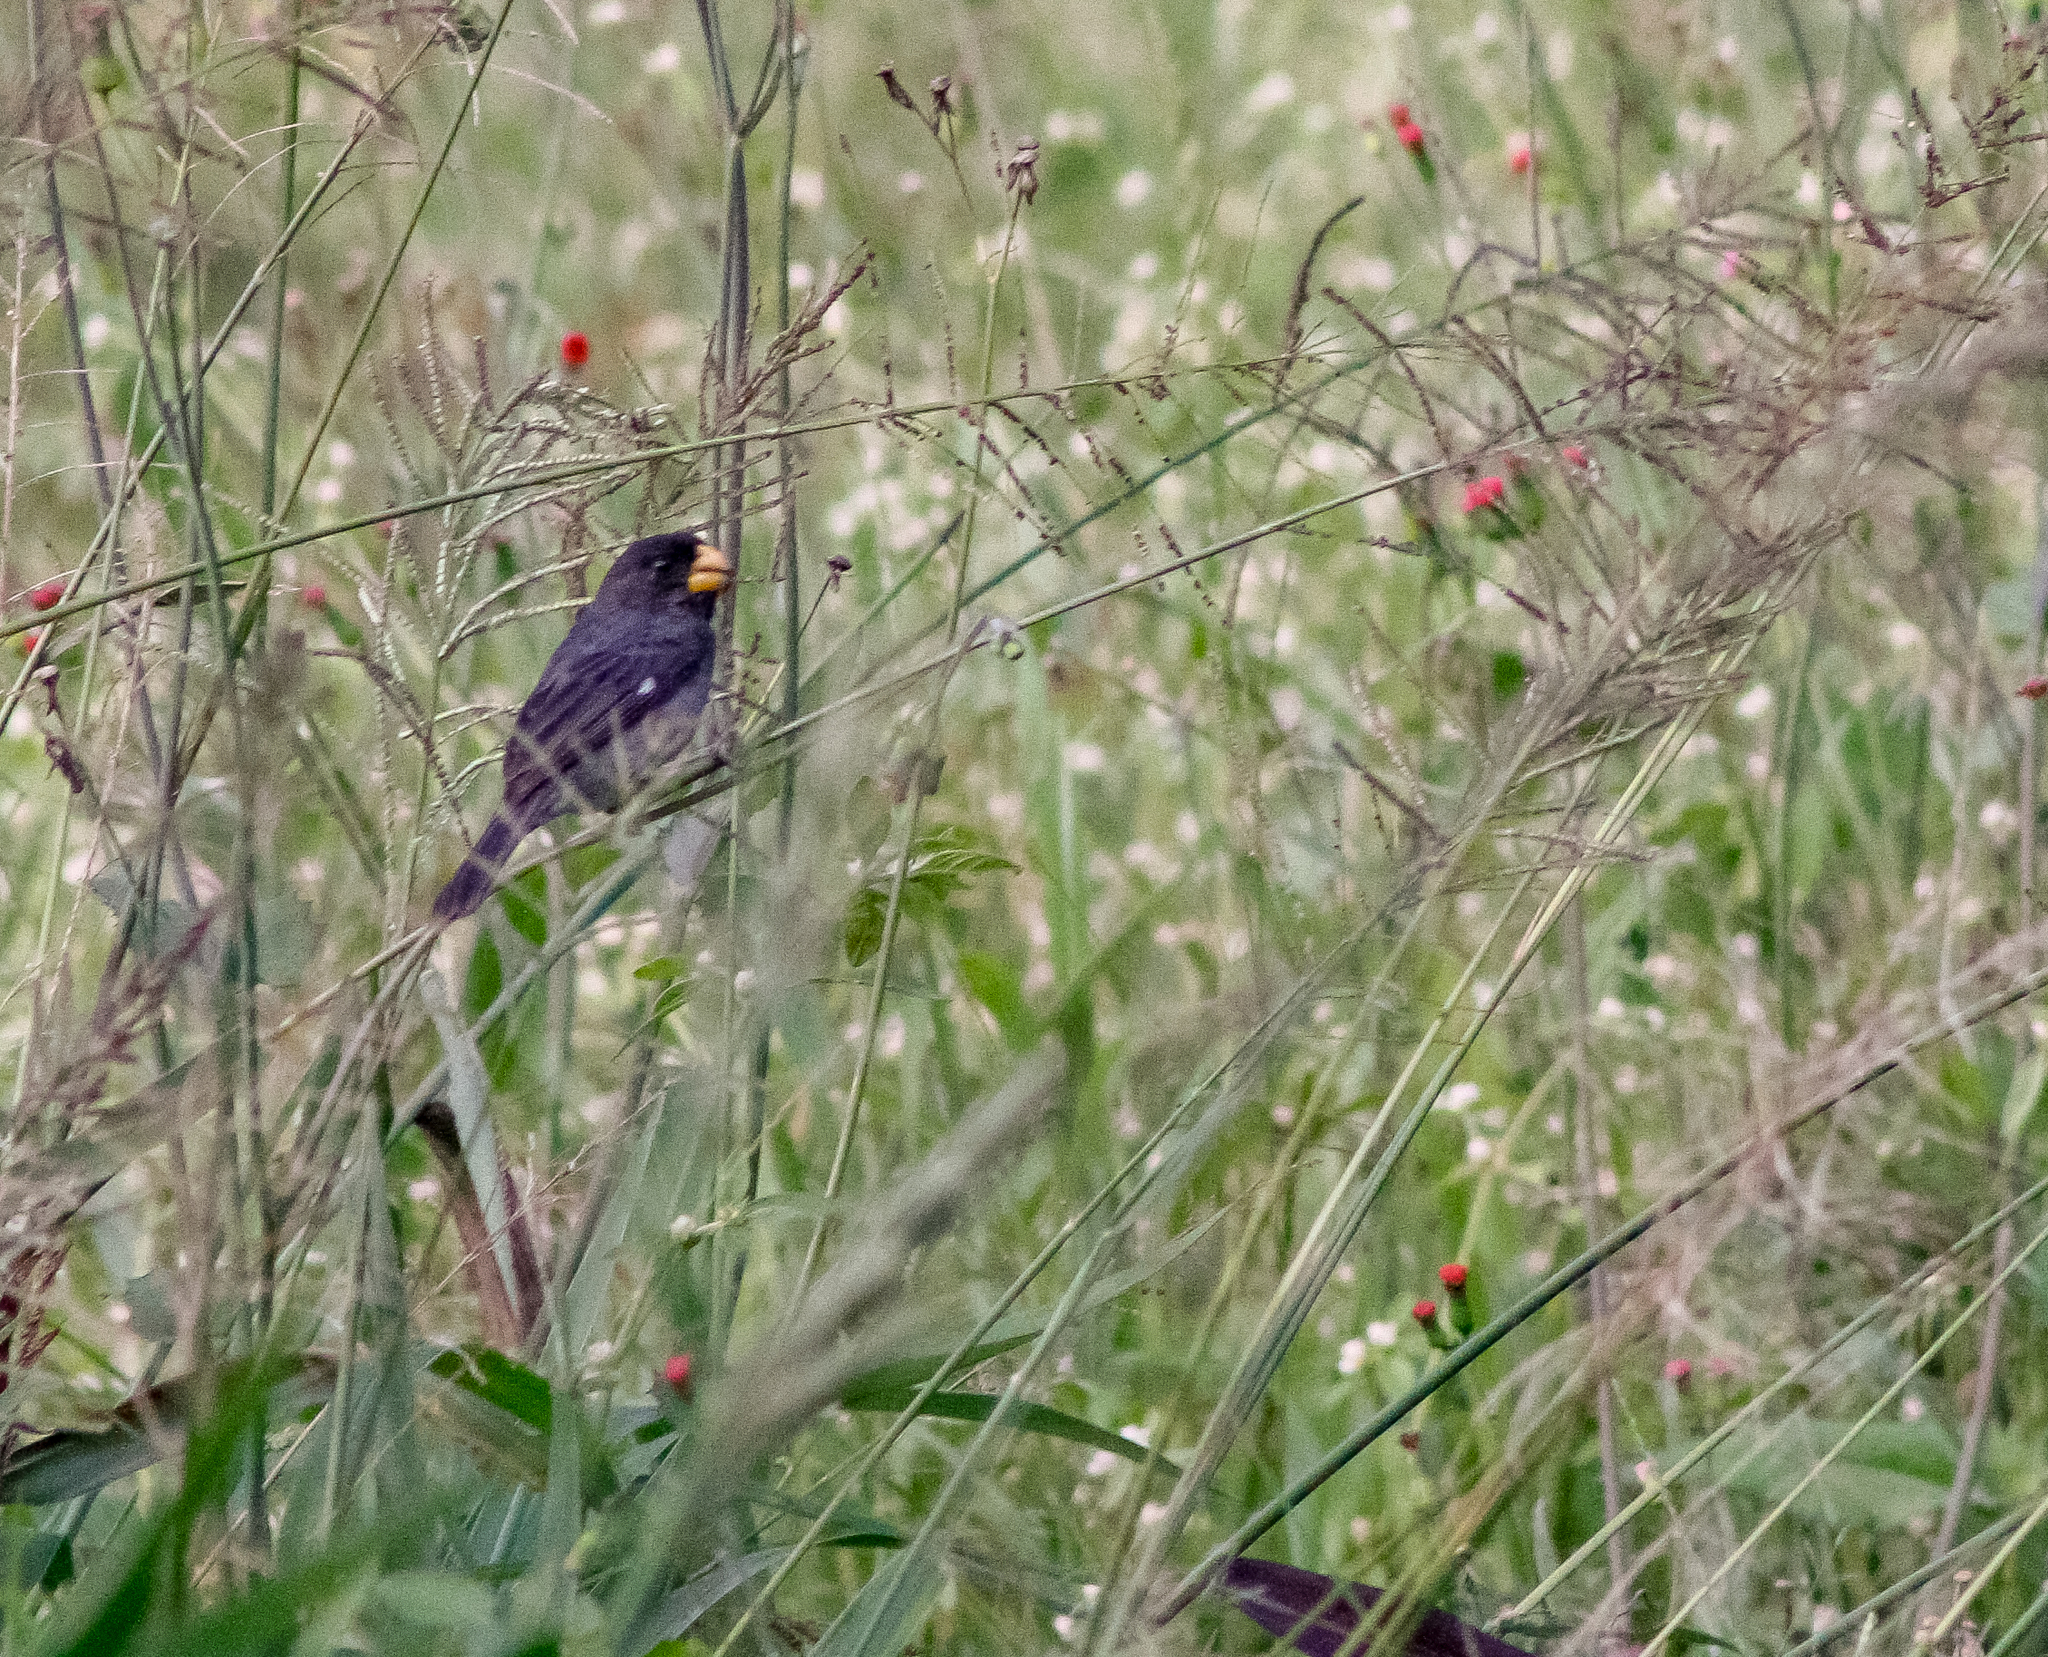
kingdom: Animalia
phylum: Chordata
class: Aves
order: Passeriformes
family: Thraupidae
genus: Sporophila
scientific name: Sporophila intermedia
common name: Grey seedeater
